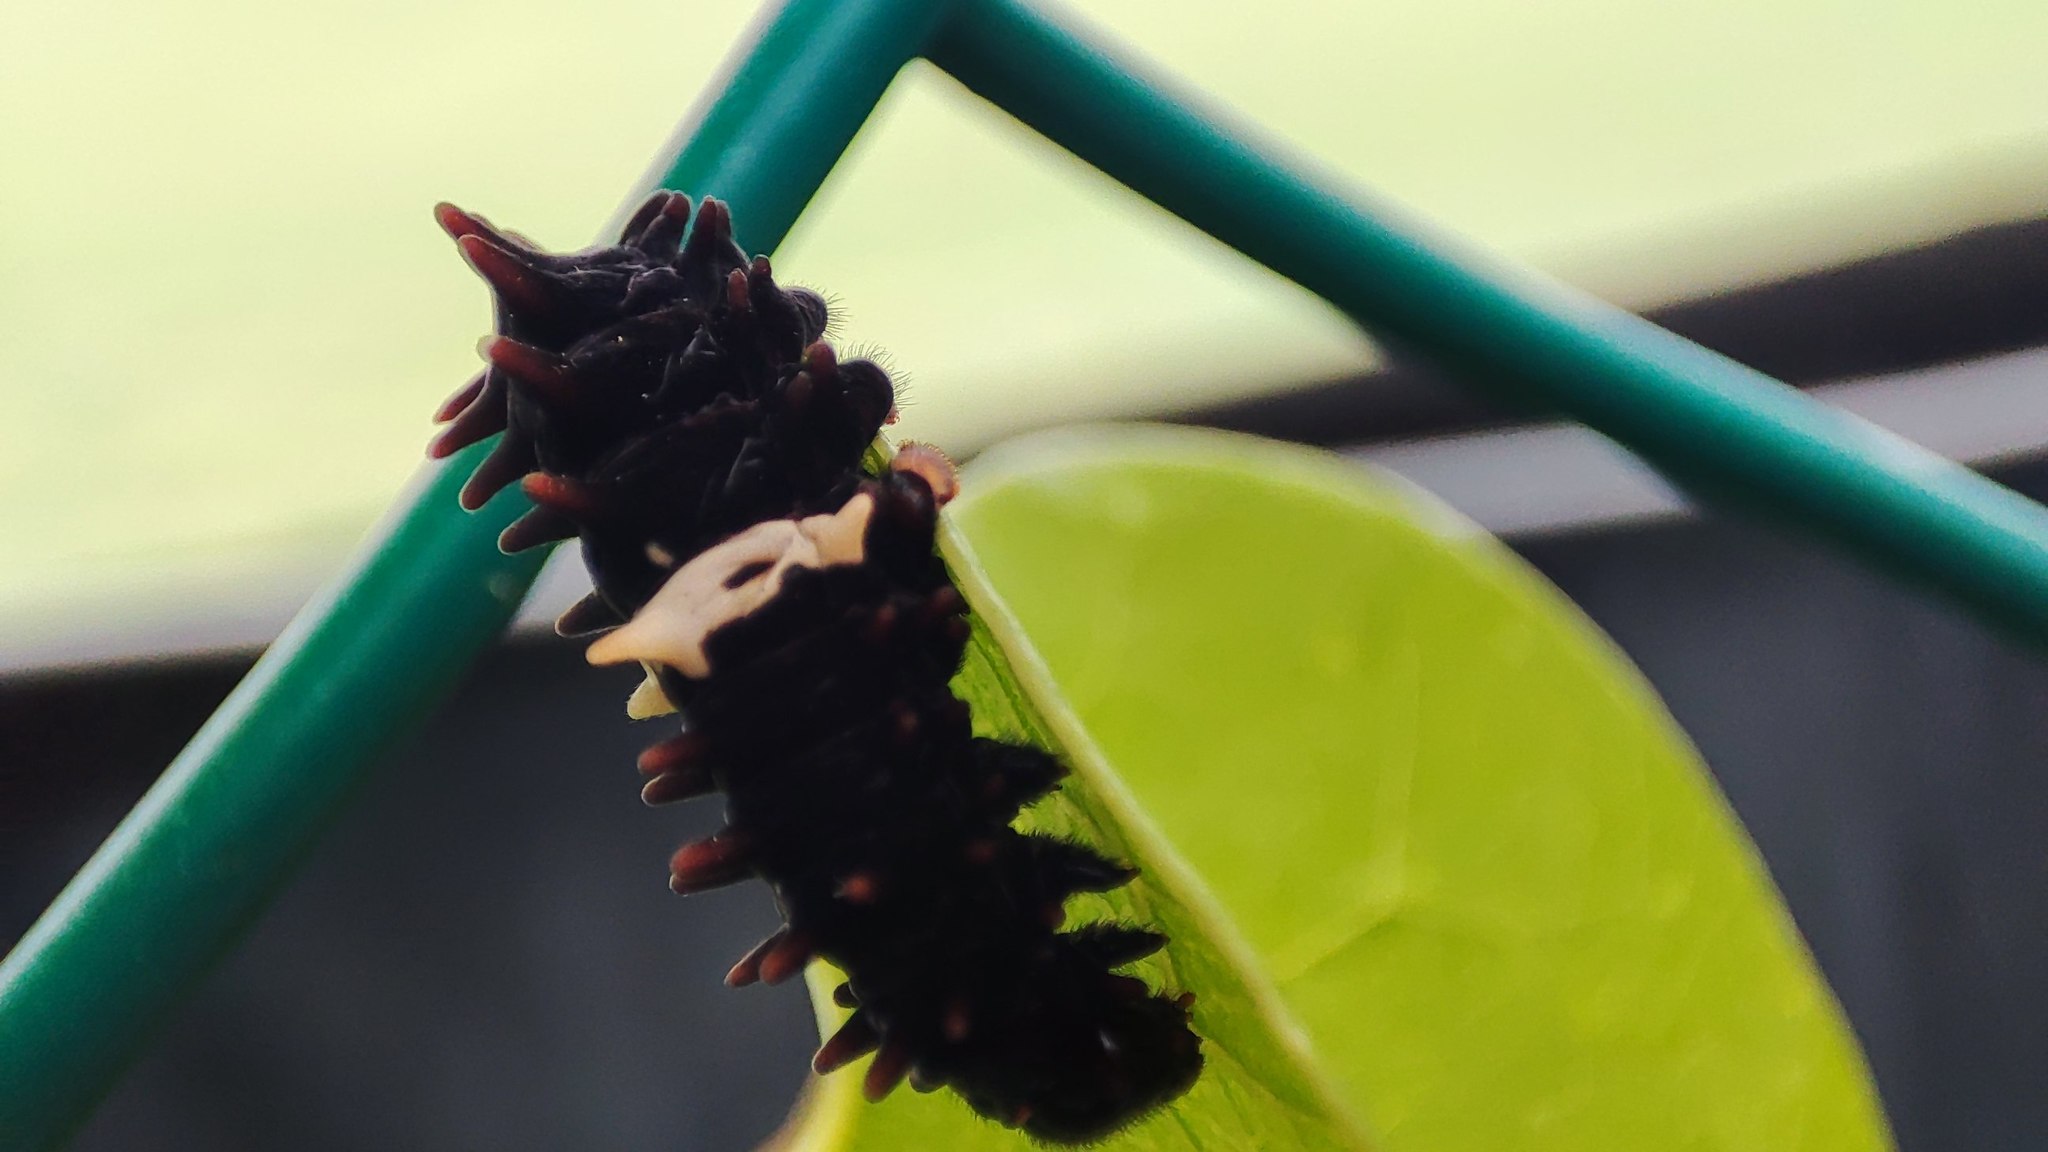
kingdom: Animalia
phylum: Arthropoda
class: Insecta
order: Lepidoptera
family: Papilionidae
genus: Pachliopta
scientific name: Pachliopta aristolochiae
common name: Common rose
